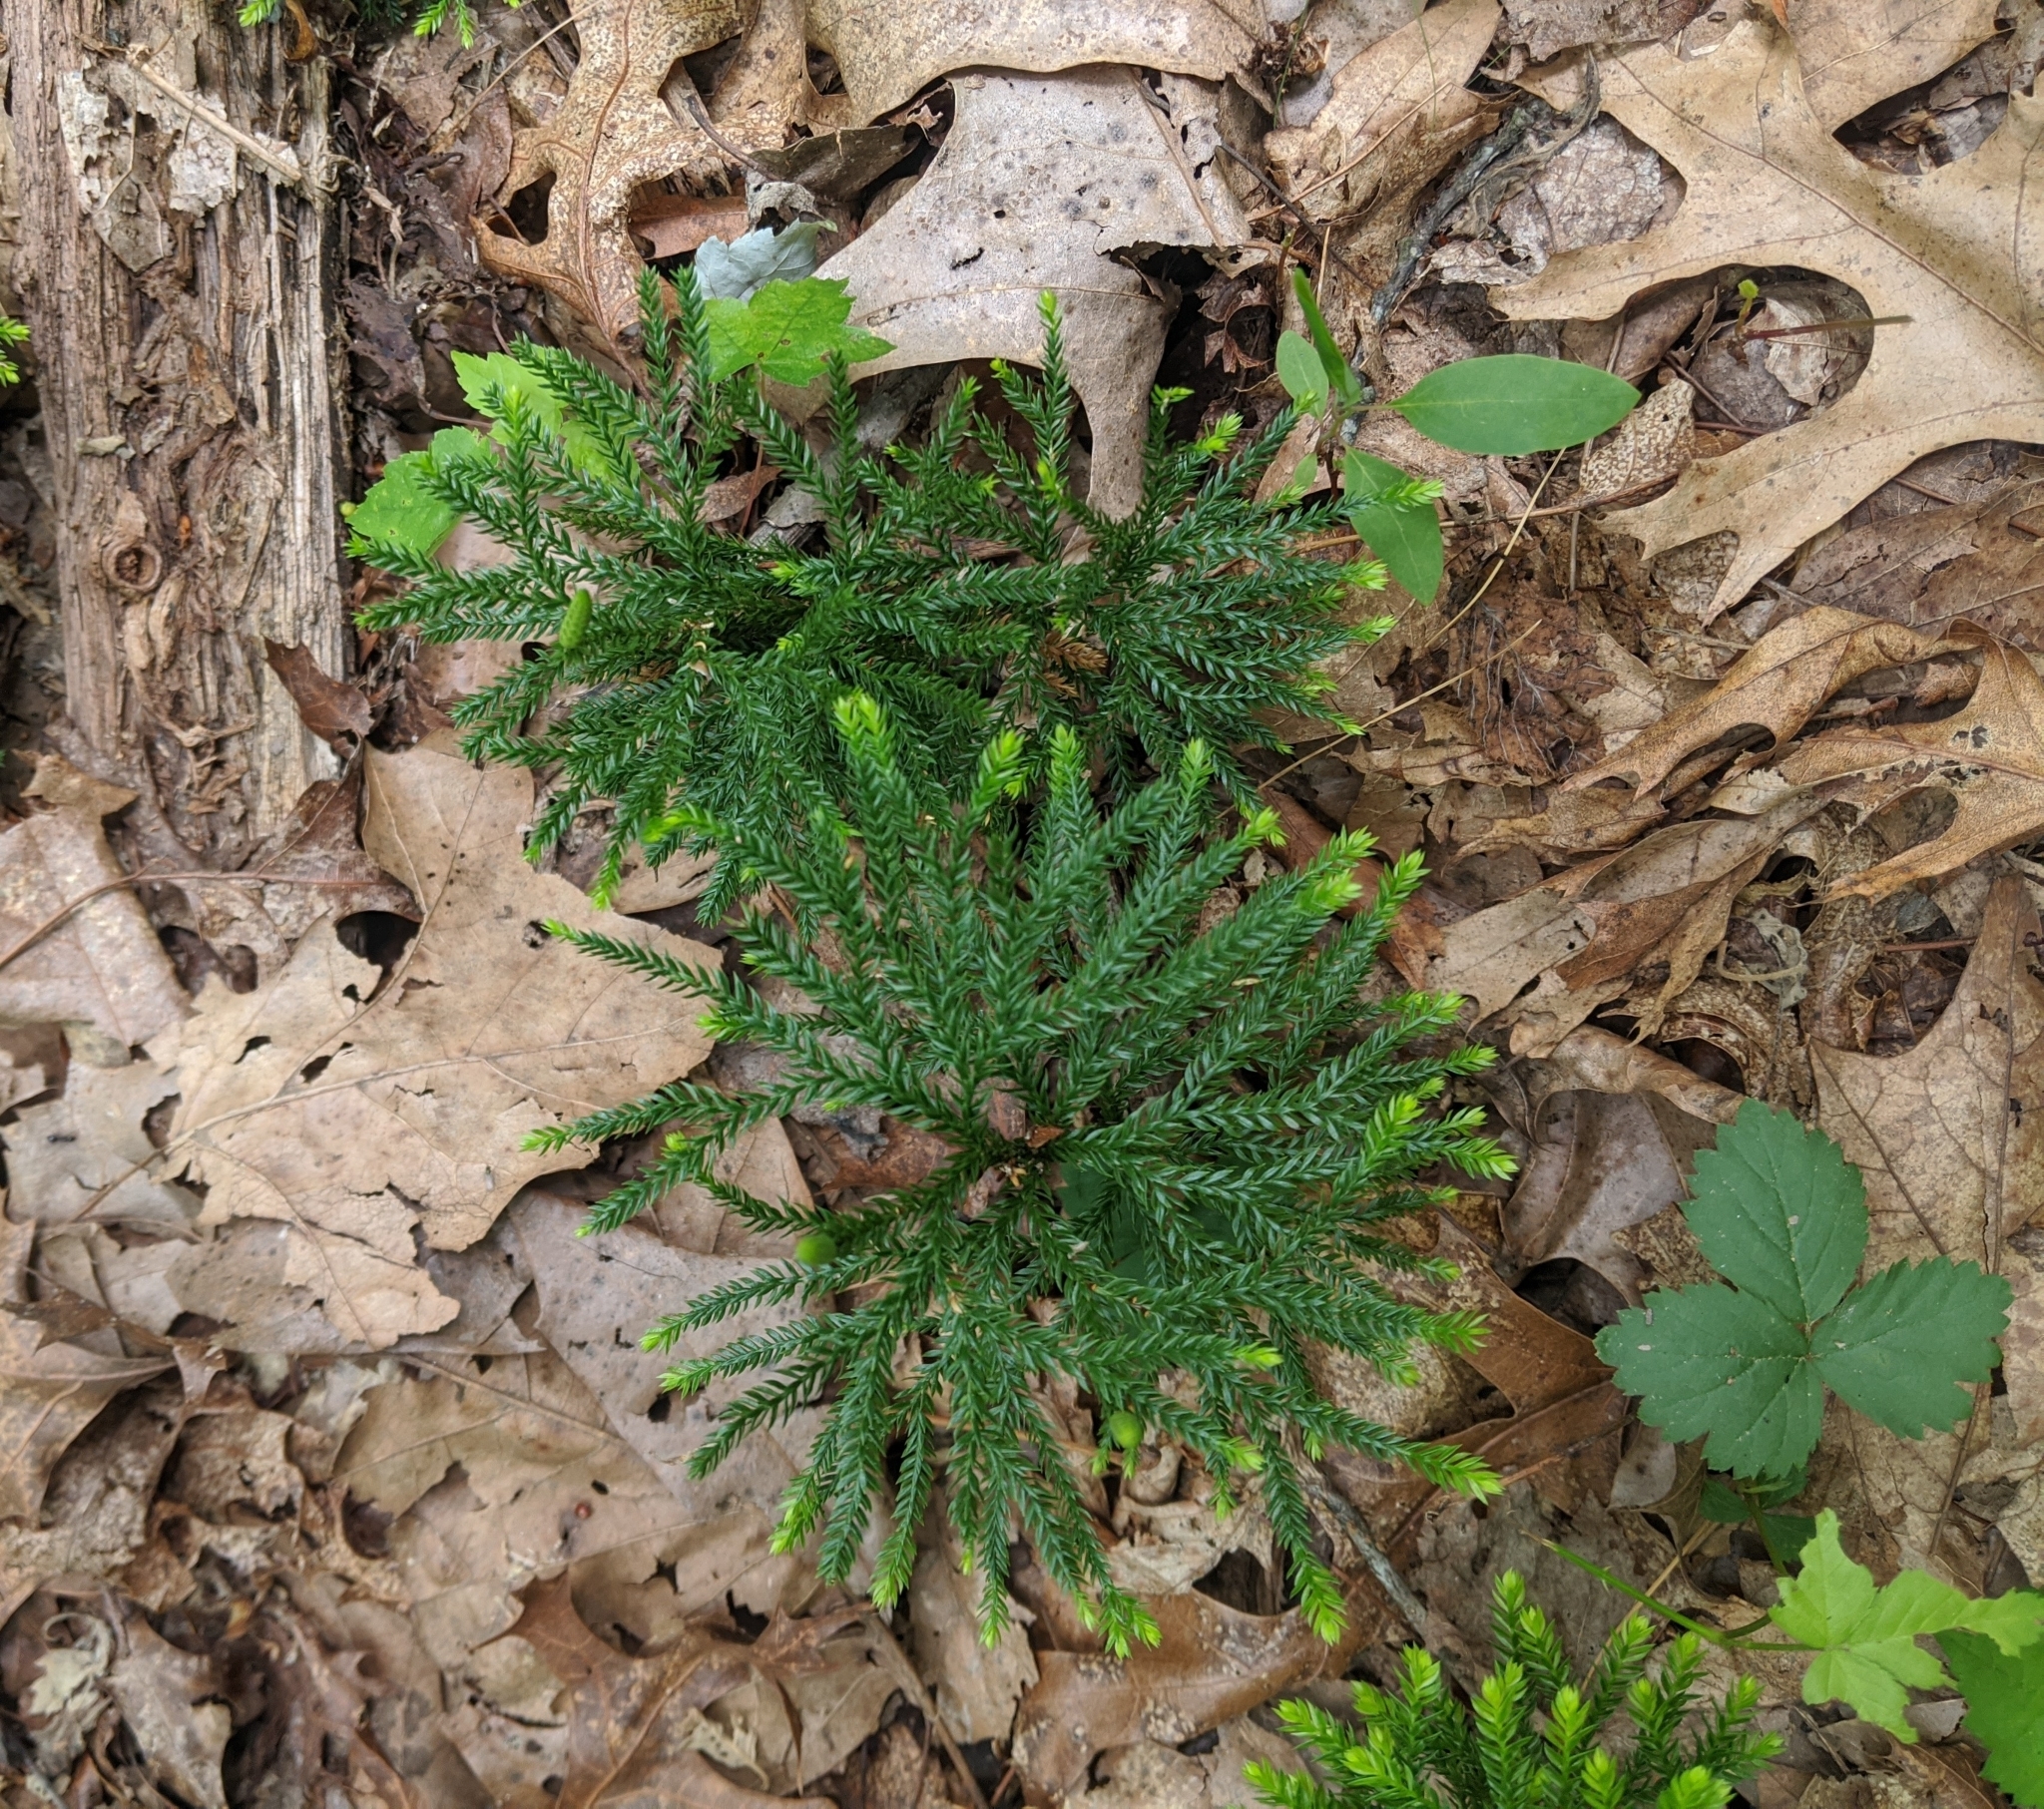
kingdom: Plantae
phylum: Tracheophyta
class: Lycopodiopsida
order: Lycopodiales
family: Lycopodiaceae
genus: Dendrolycopodium
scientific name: Dendrolycopodium obscurum
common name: Common ground-pine
